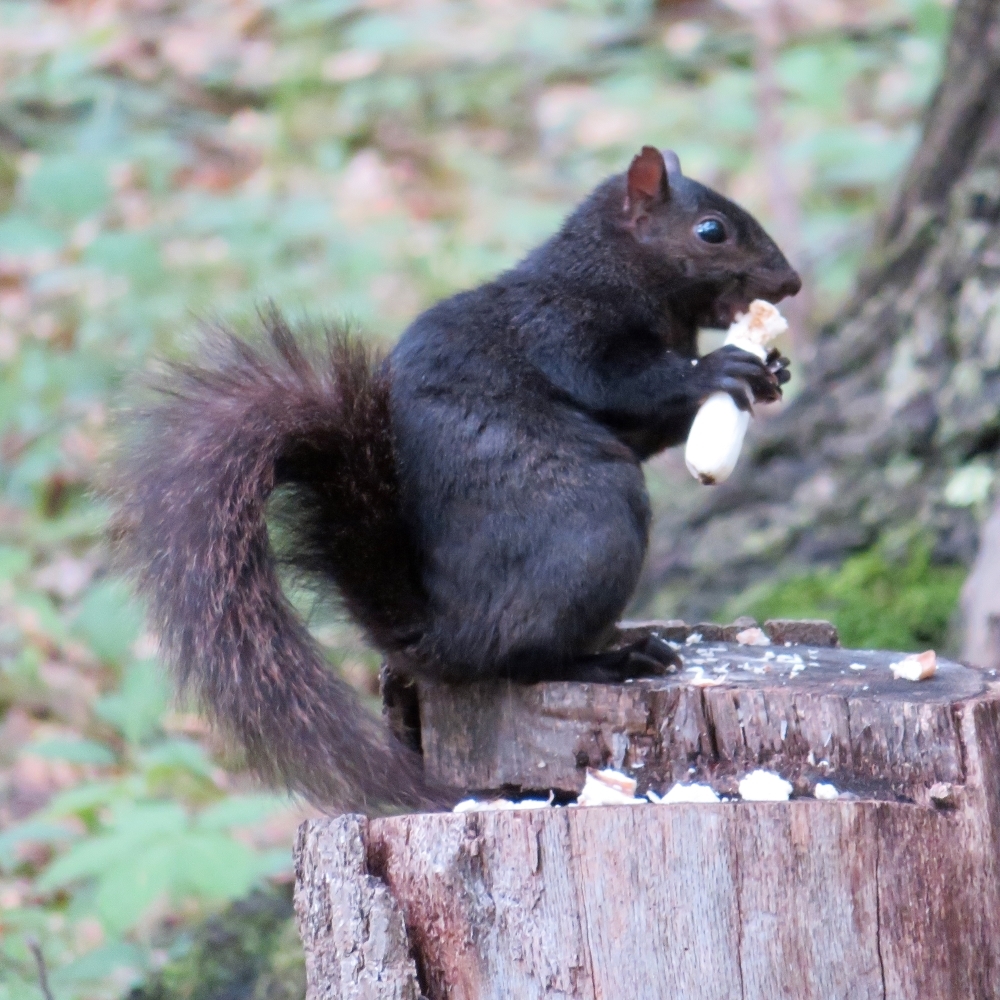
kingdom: Animalia
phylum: Chordata
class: Mammalia
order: Rodentia
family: Sciuridae
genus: Sciurus
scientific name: Sciurus carolinensis
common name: Eastern gray squirrel
